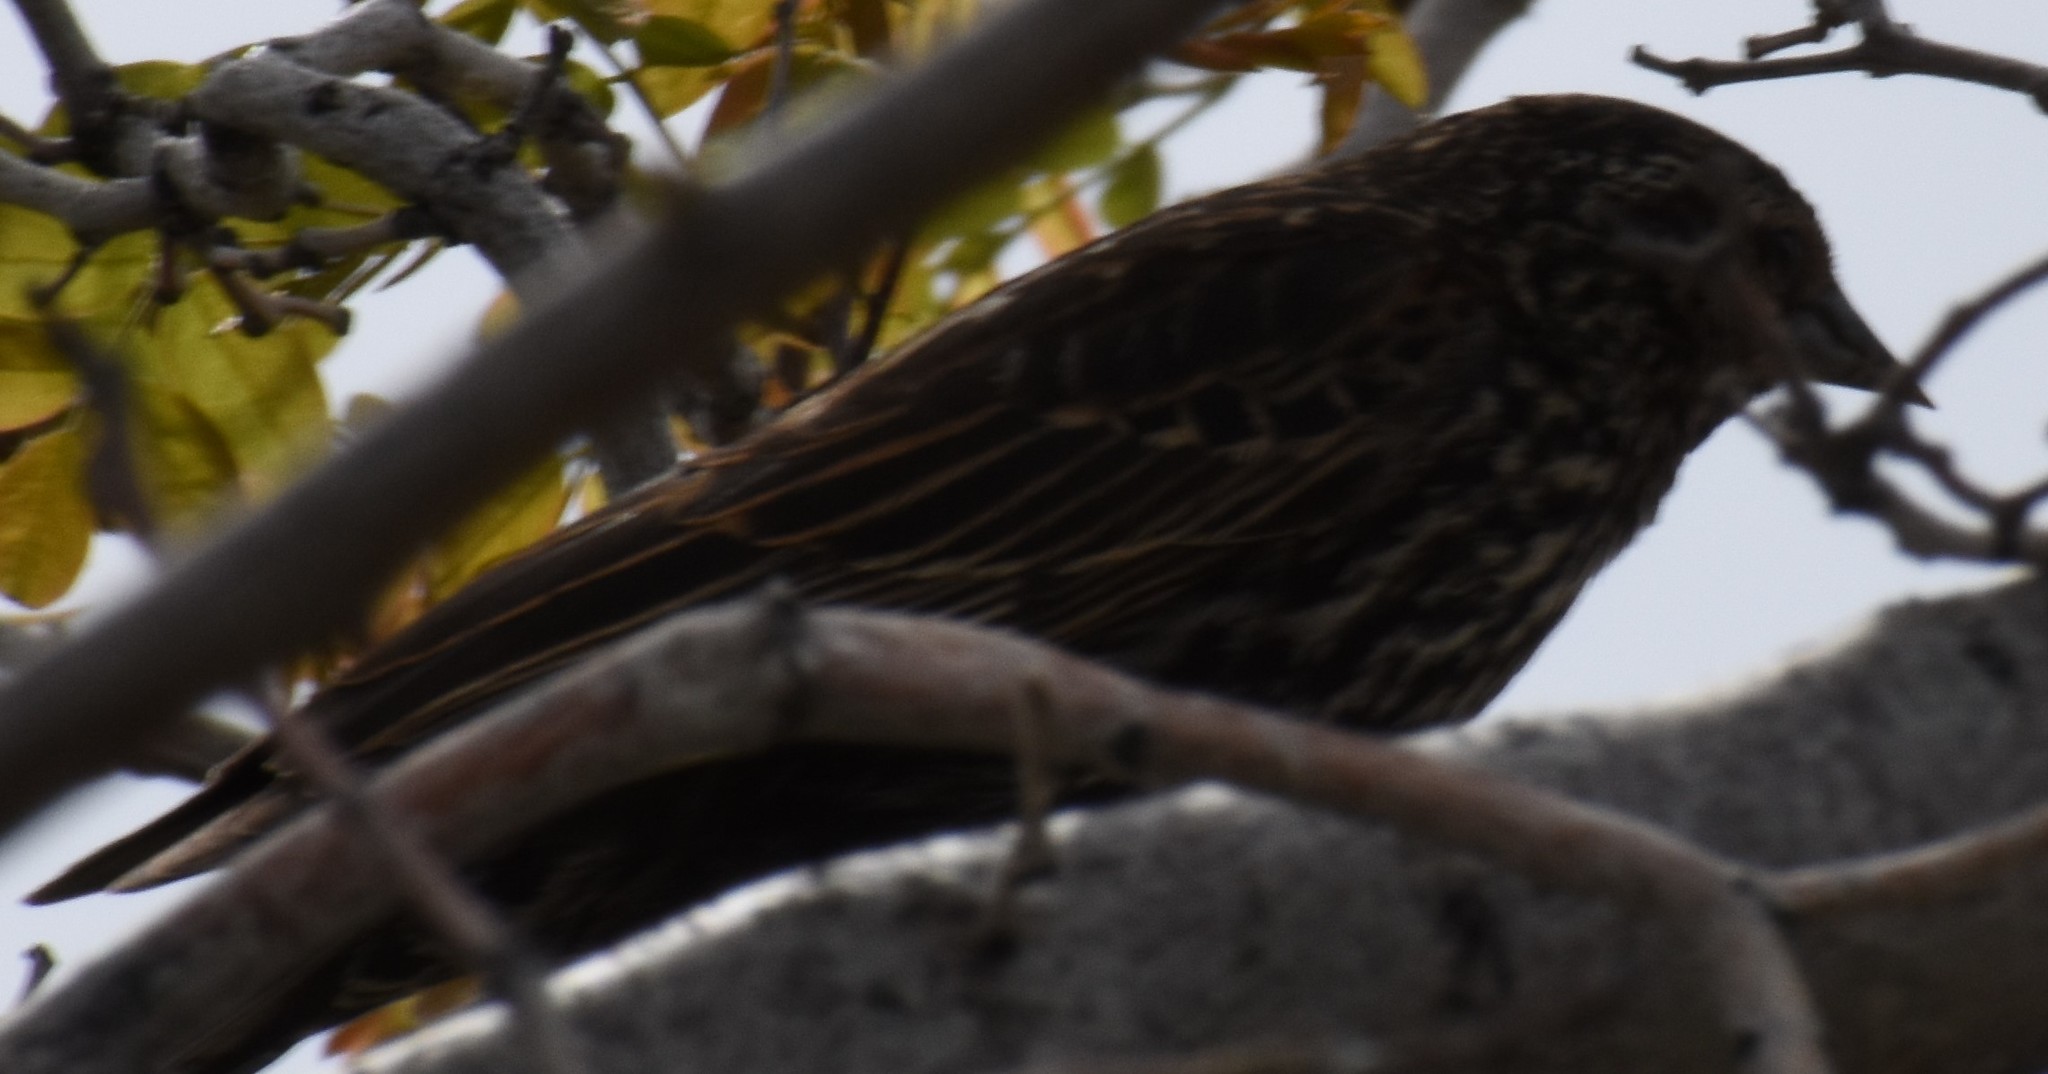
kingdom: Animalia
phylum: Chordata
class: Aves
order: Passeriformes
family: Icteridae
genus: Agelaius
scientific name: Agelaius phoeniceus
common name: Red-winged blackbird
